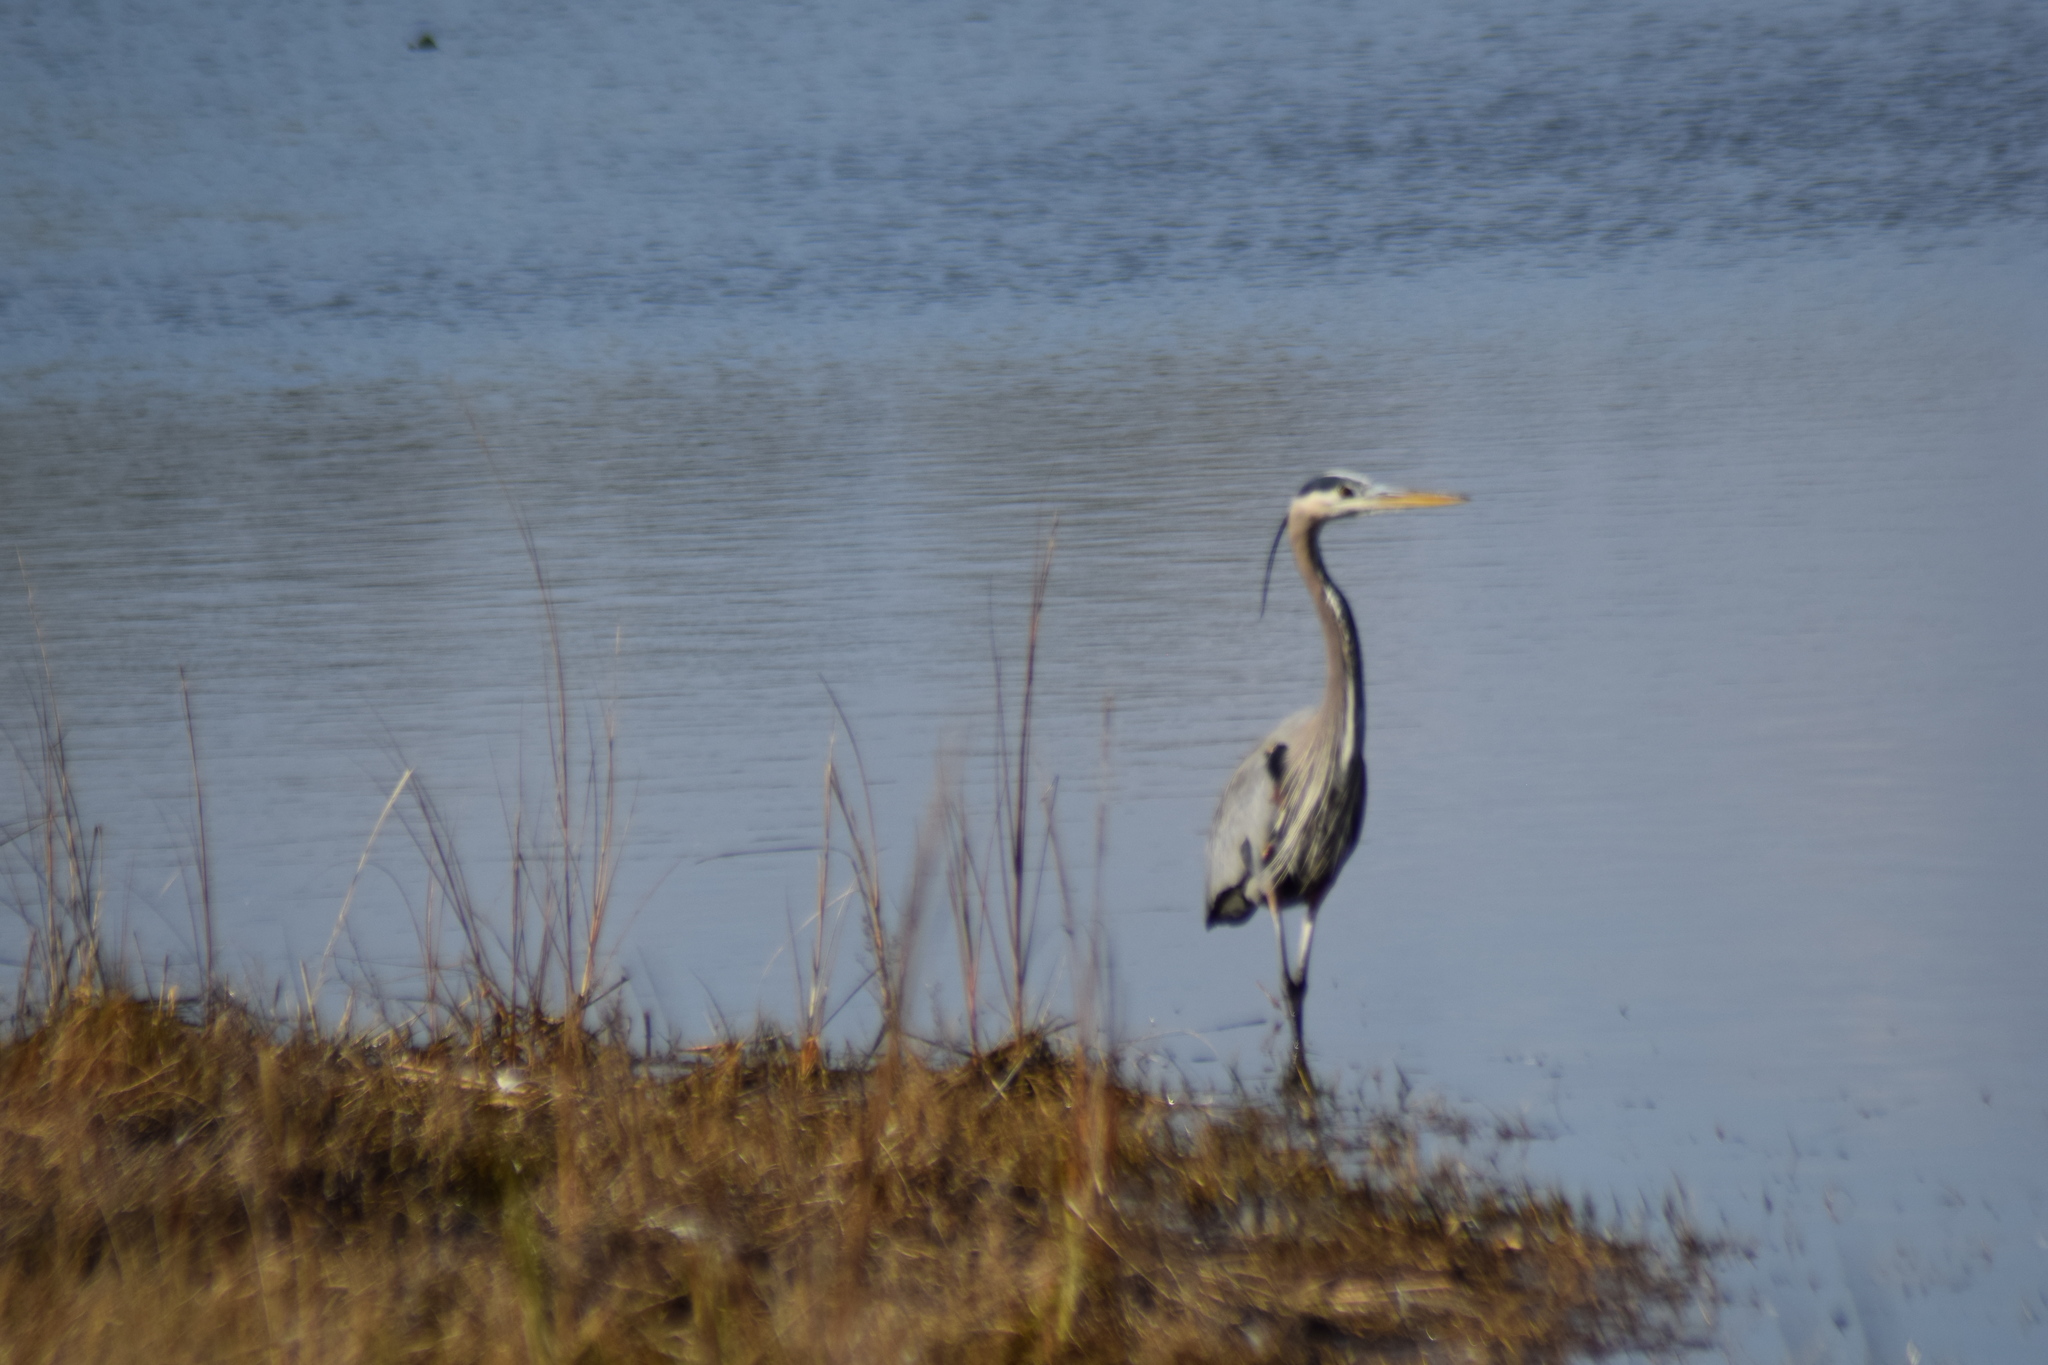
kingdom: Animalia
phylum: Chordata
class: Aves
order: Pelecaniformes
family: Ardeidae
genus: Ardea
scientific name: Ardea herodias
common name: Great blue heron
